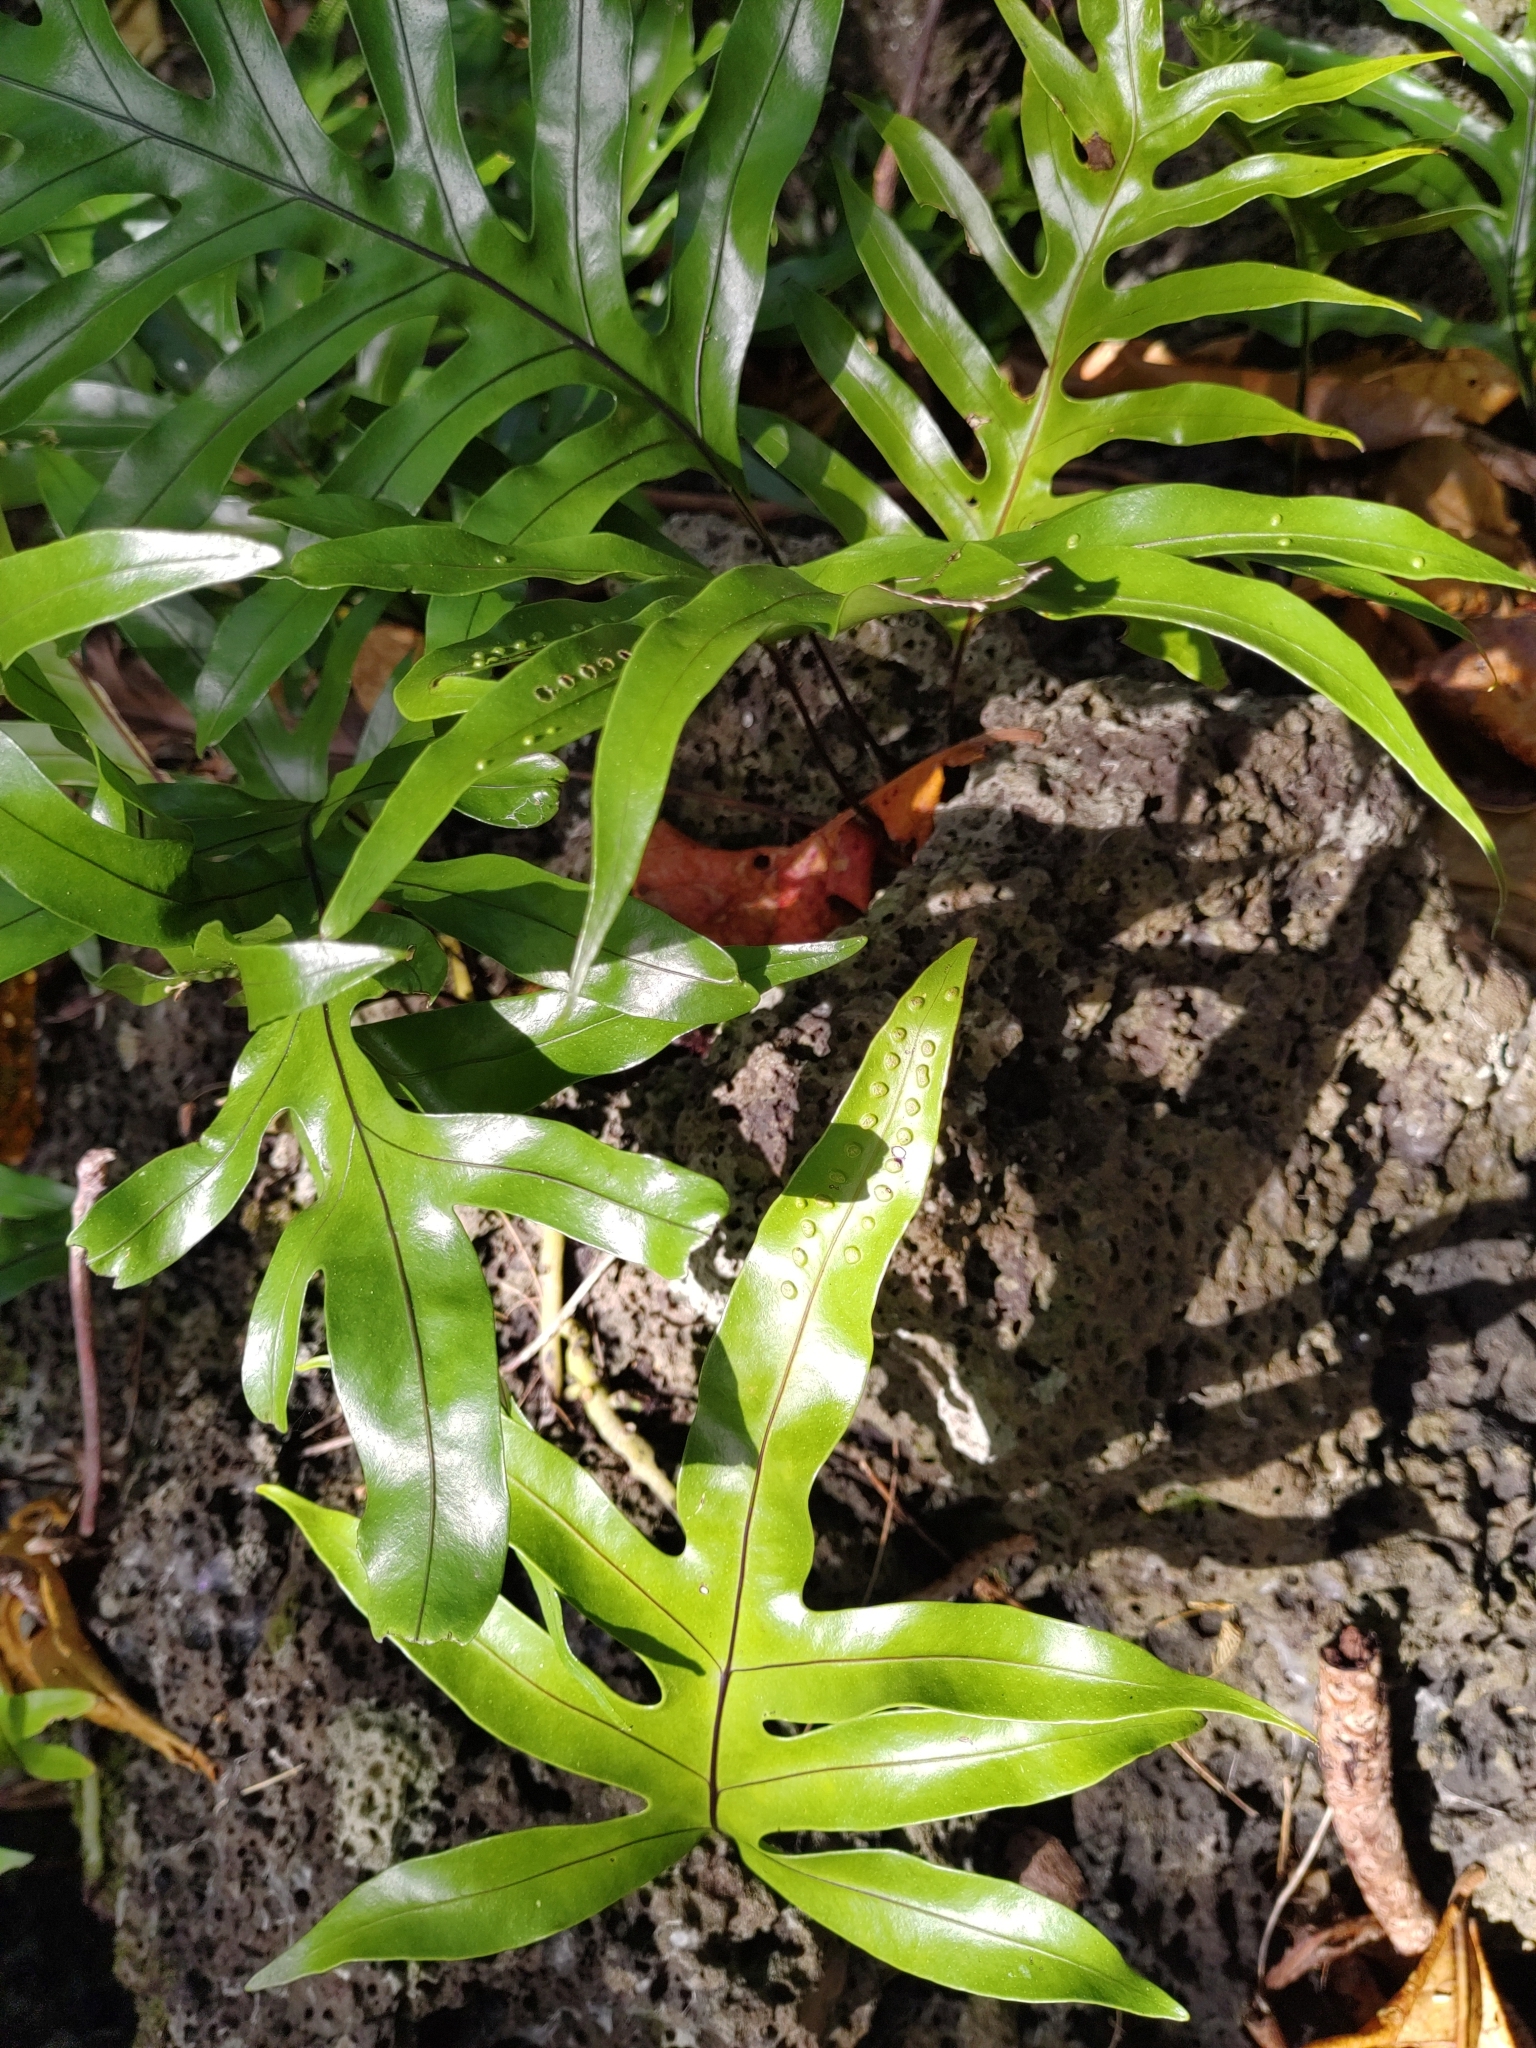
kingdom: Plantae
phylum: Tracheophyta
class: Polypodiopsida
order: Polypodiales
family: Polypodiaceae
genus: Microsorum
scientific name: Microsorum scolopendria
